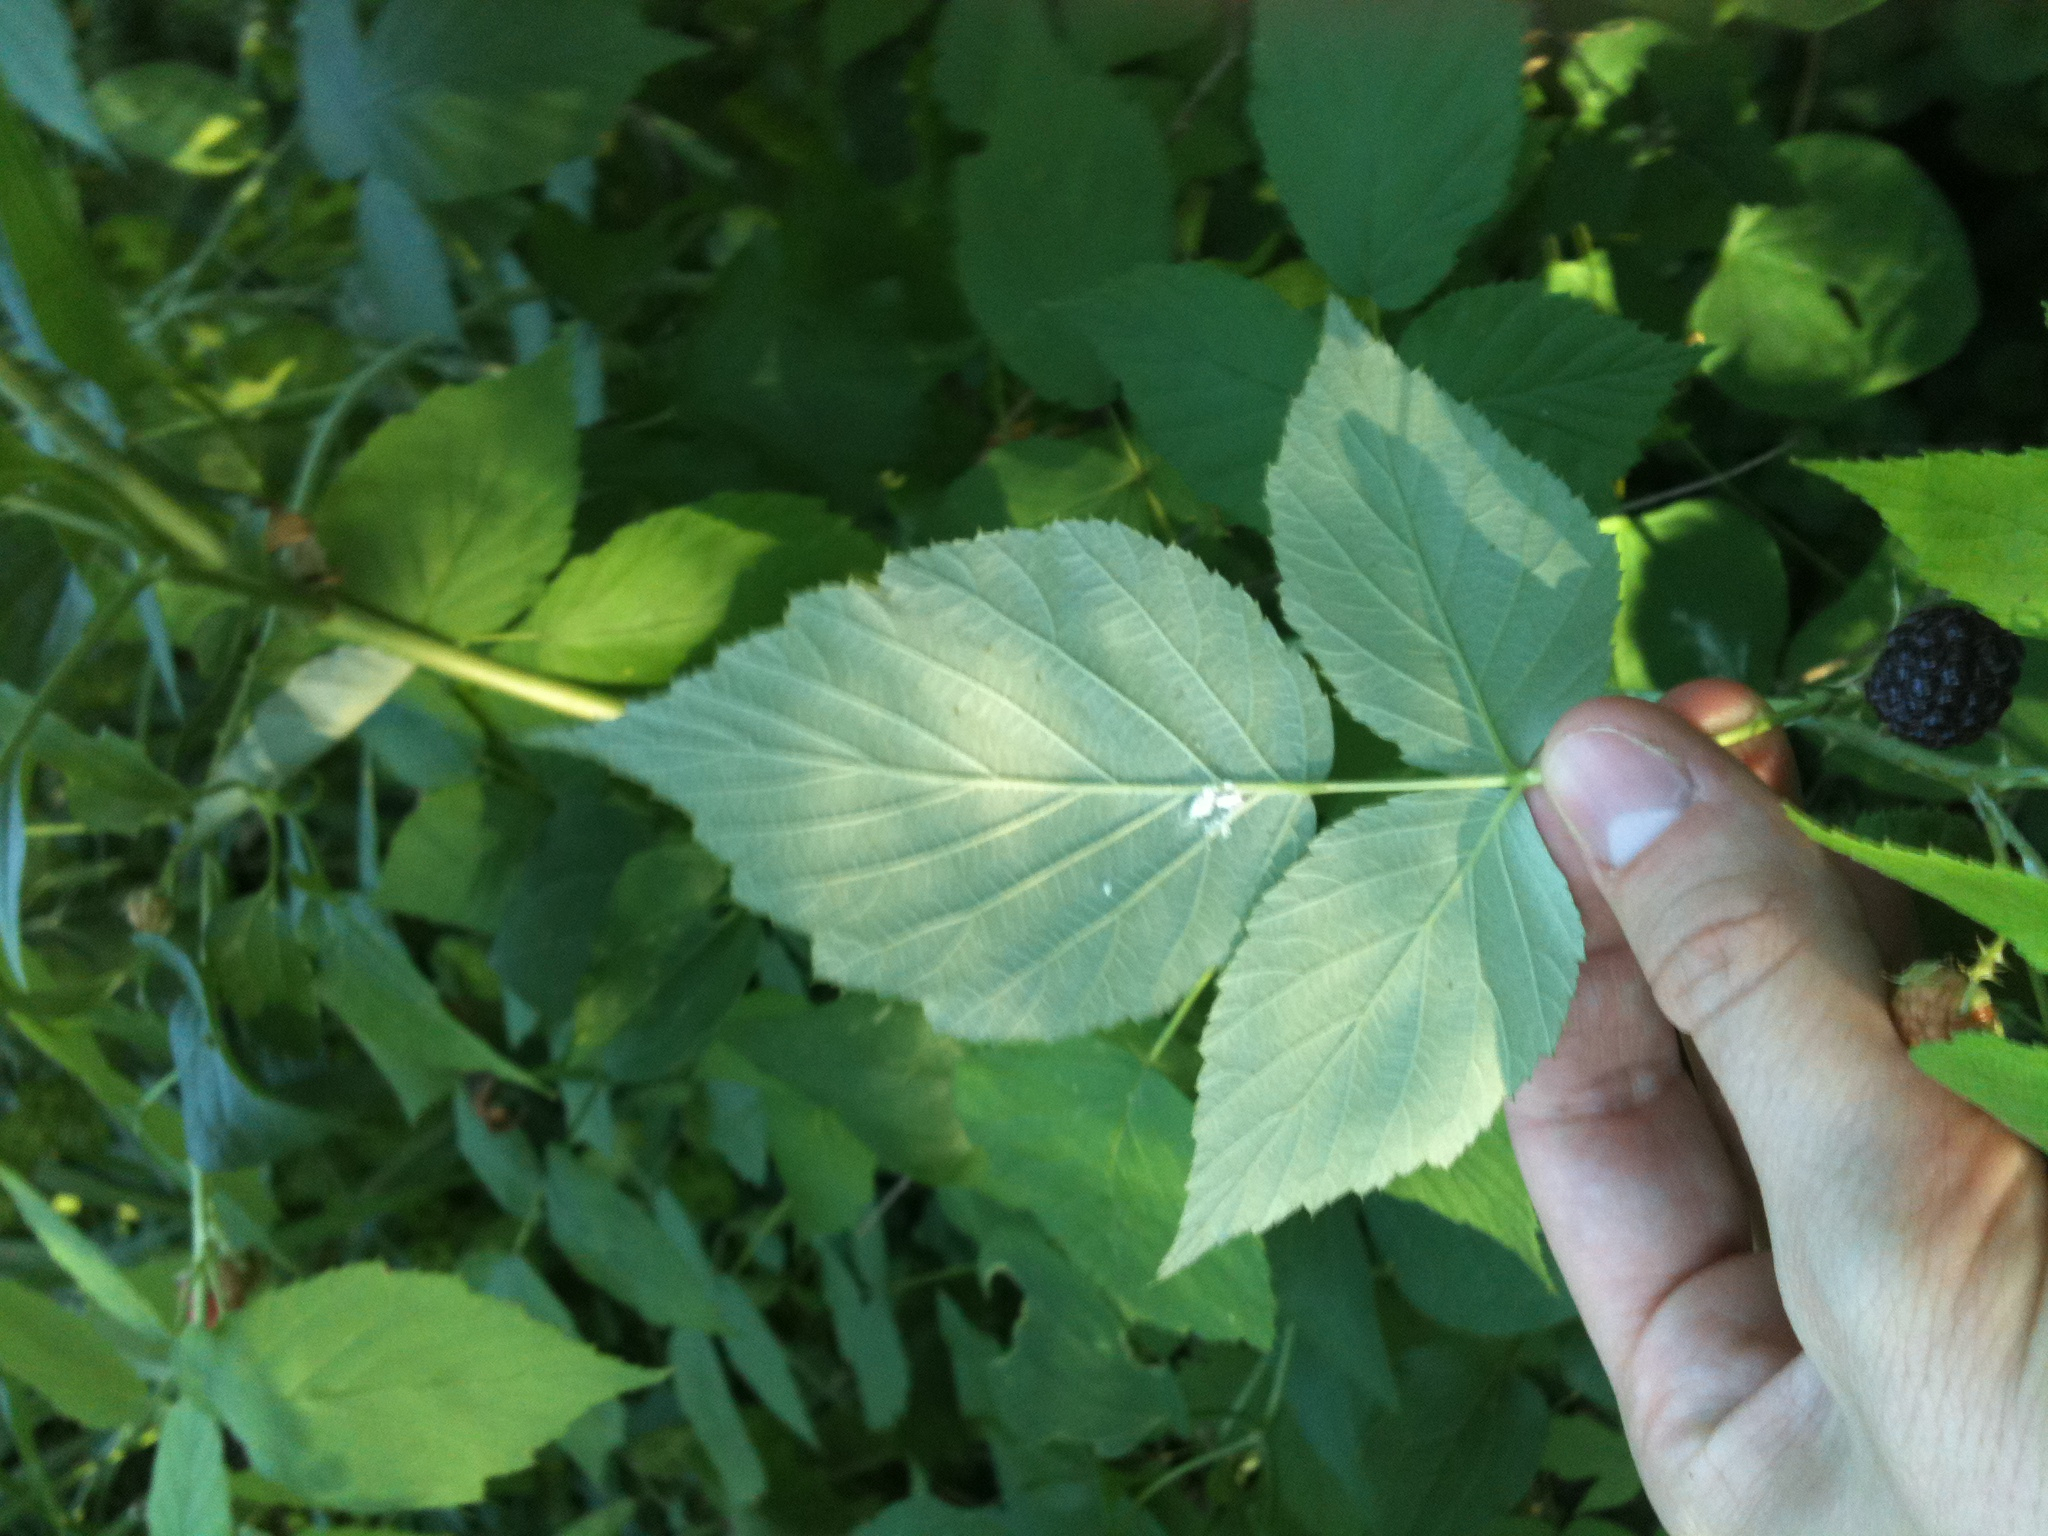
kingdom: Plantae
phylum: Tracheophyta
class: Magnoliopsida
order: Rosales
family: Rosaceae
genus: Rubus
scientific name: Rubus occidentalis
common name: Black raspberry
